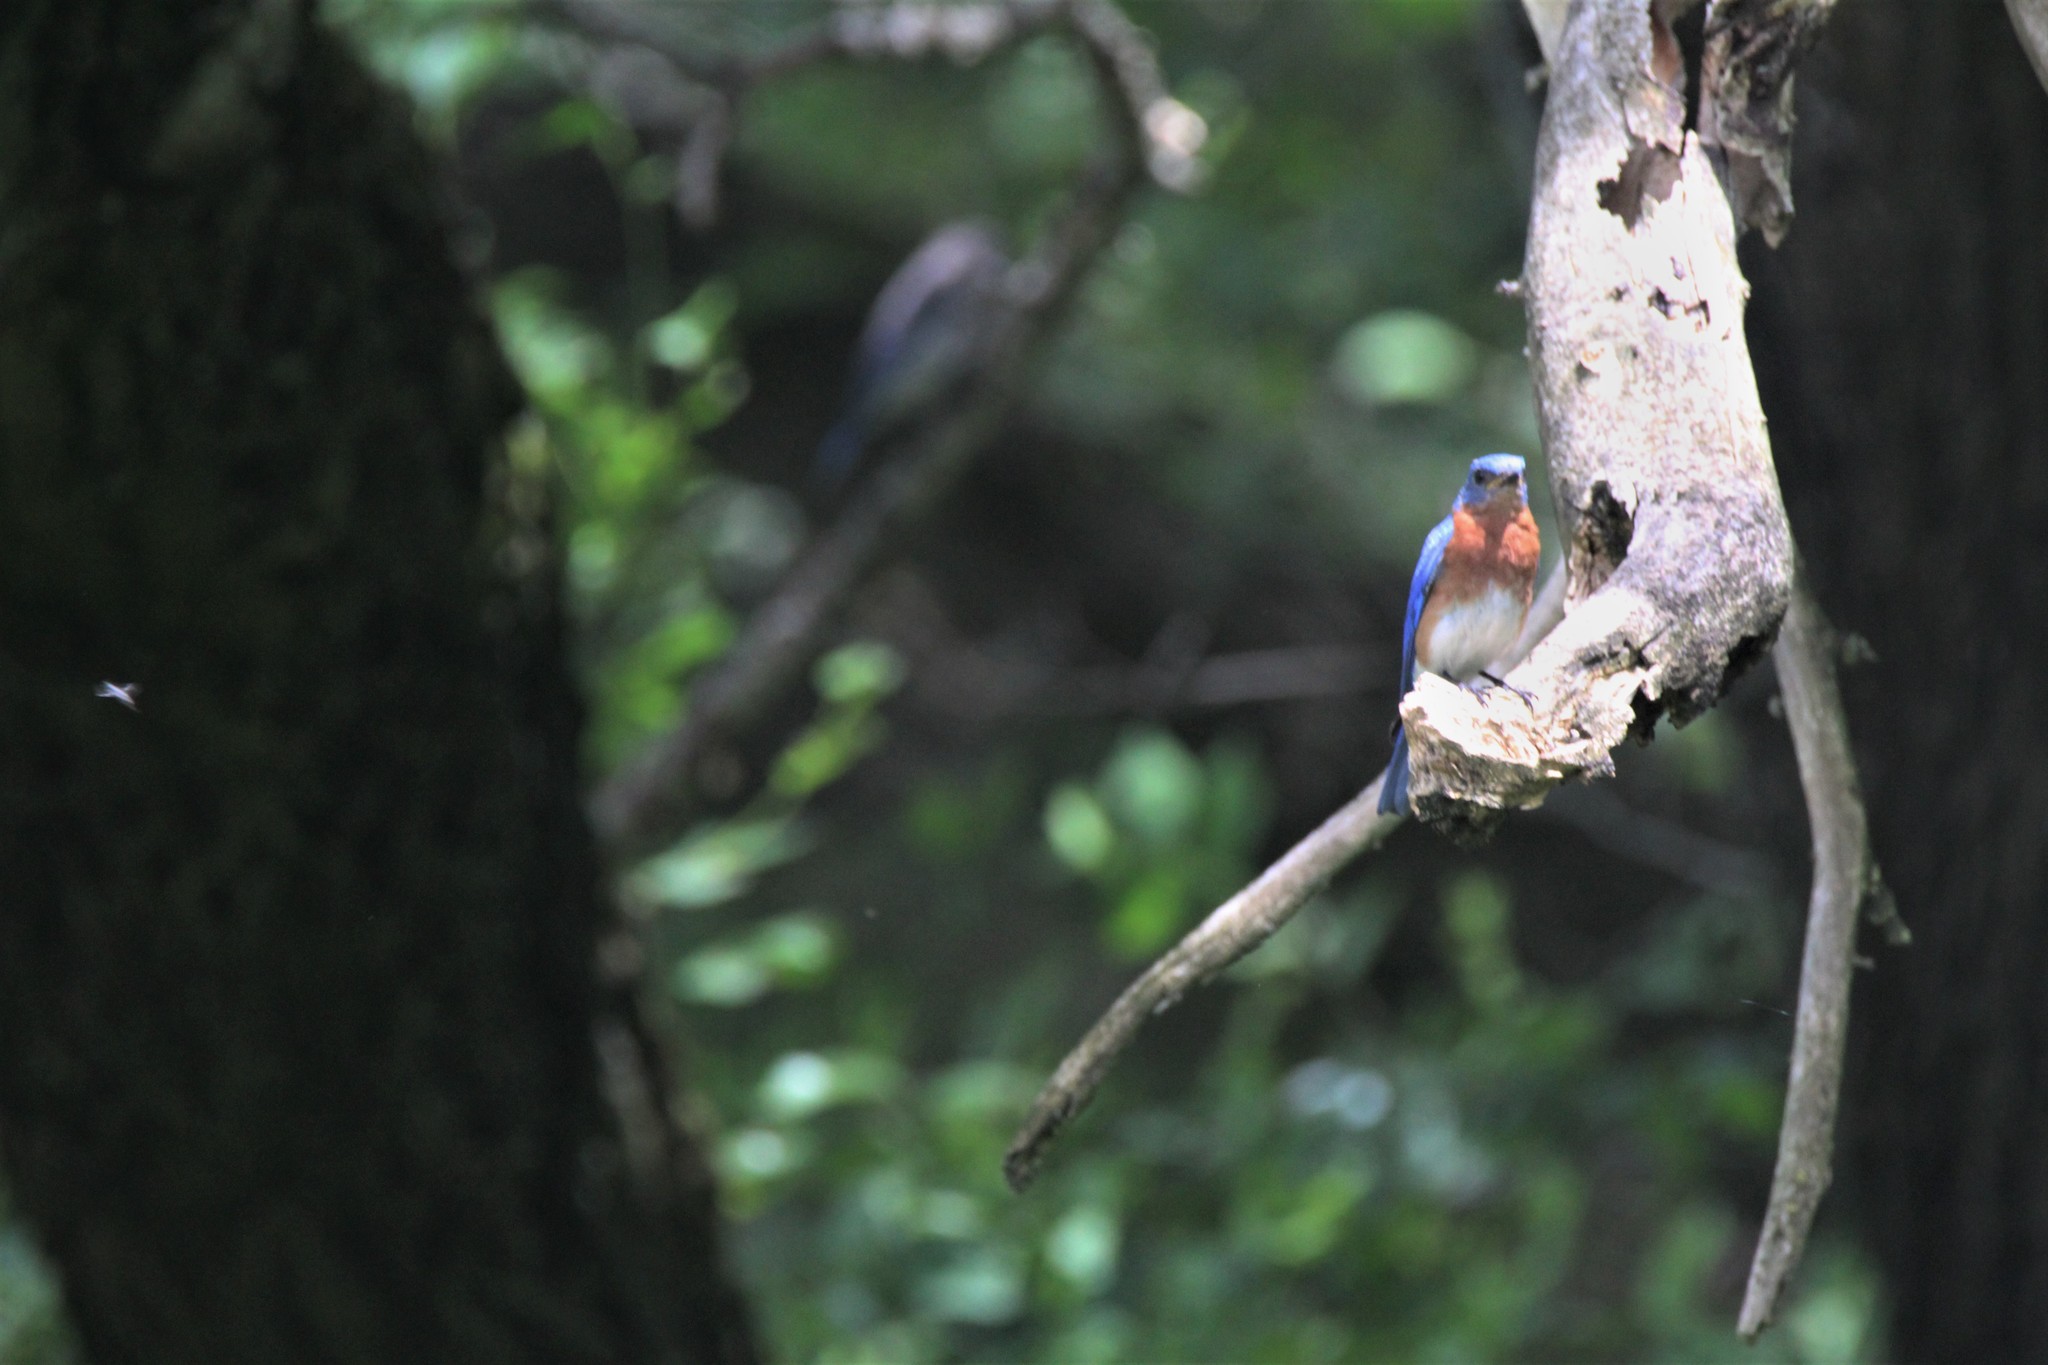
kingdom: Animalia
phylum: Chordata
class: Aves
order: Passeriformes
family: Turdidae
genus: Sialia
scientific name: Sialia sialis
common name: Eastern bluebird
